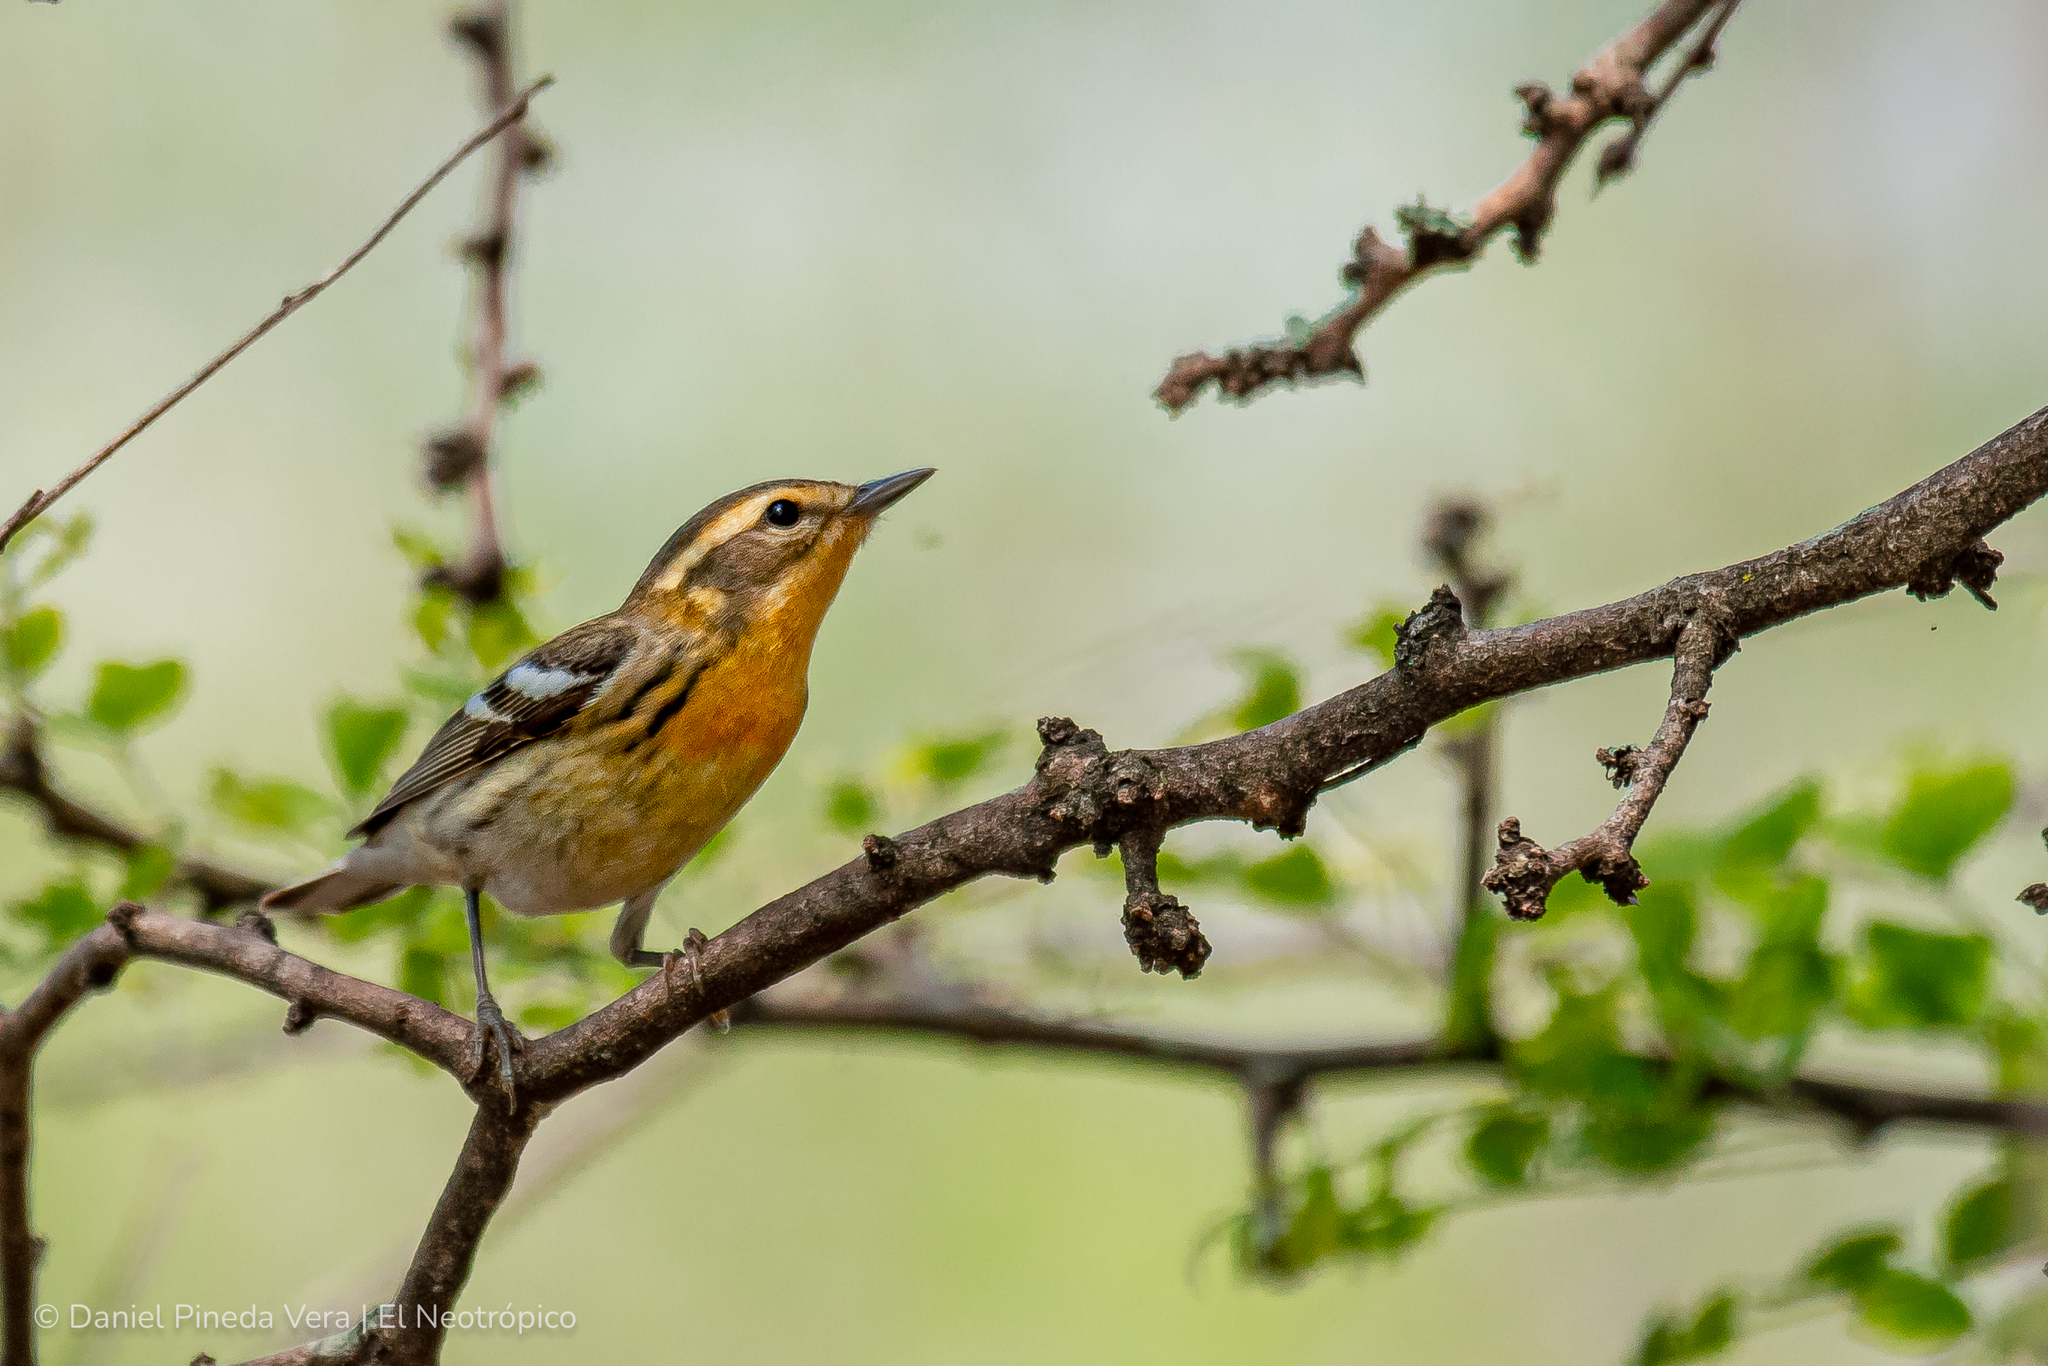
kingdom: Animalia
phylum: Chordata
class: Aves
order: Passeriformes
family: Parulidae
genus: Setophaga
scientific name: Setophaga fusca
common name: Blackburnian warbler
